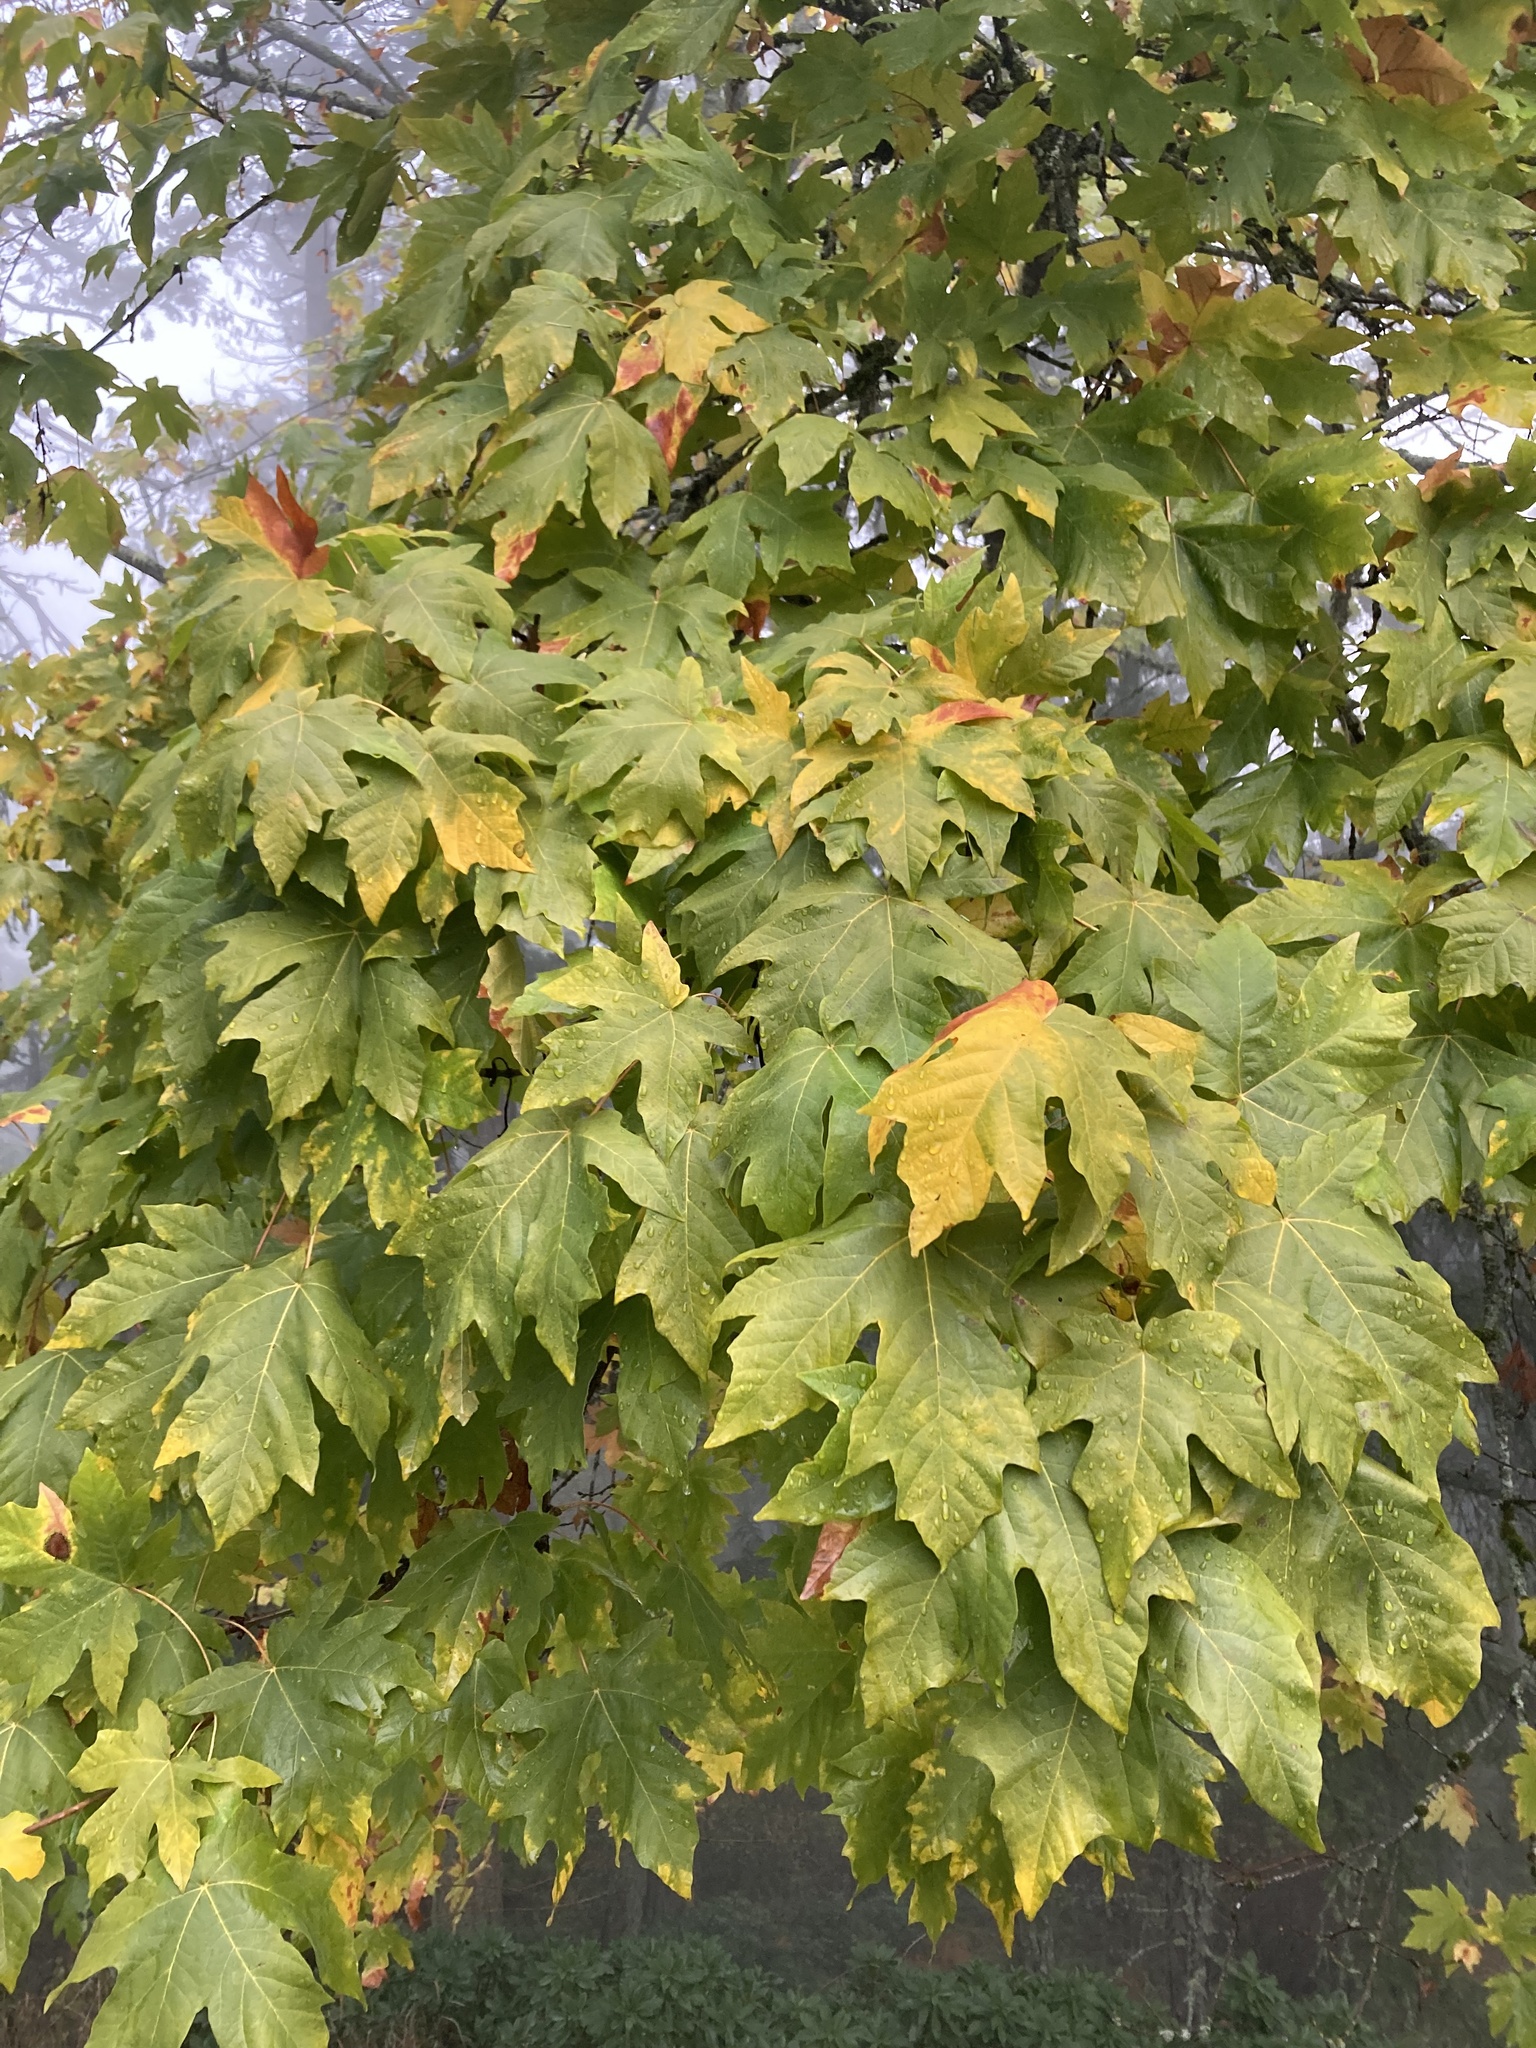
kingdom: Plantae
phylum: Tracheophyta
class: Magnoliopsida
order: Sapindales
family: Sapindaceae
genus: Acer
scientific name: Acer macrophyllum
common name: Oregon maple
